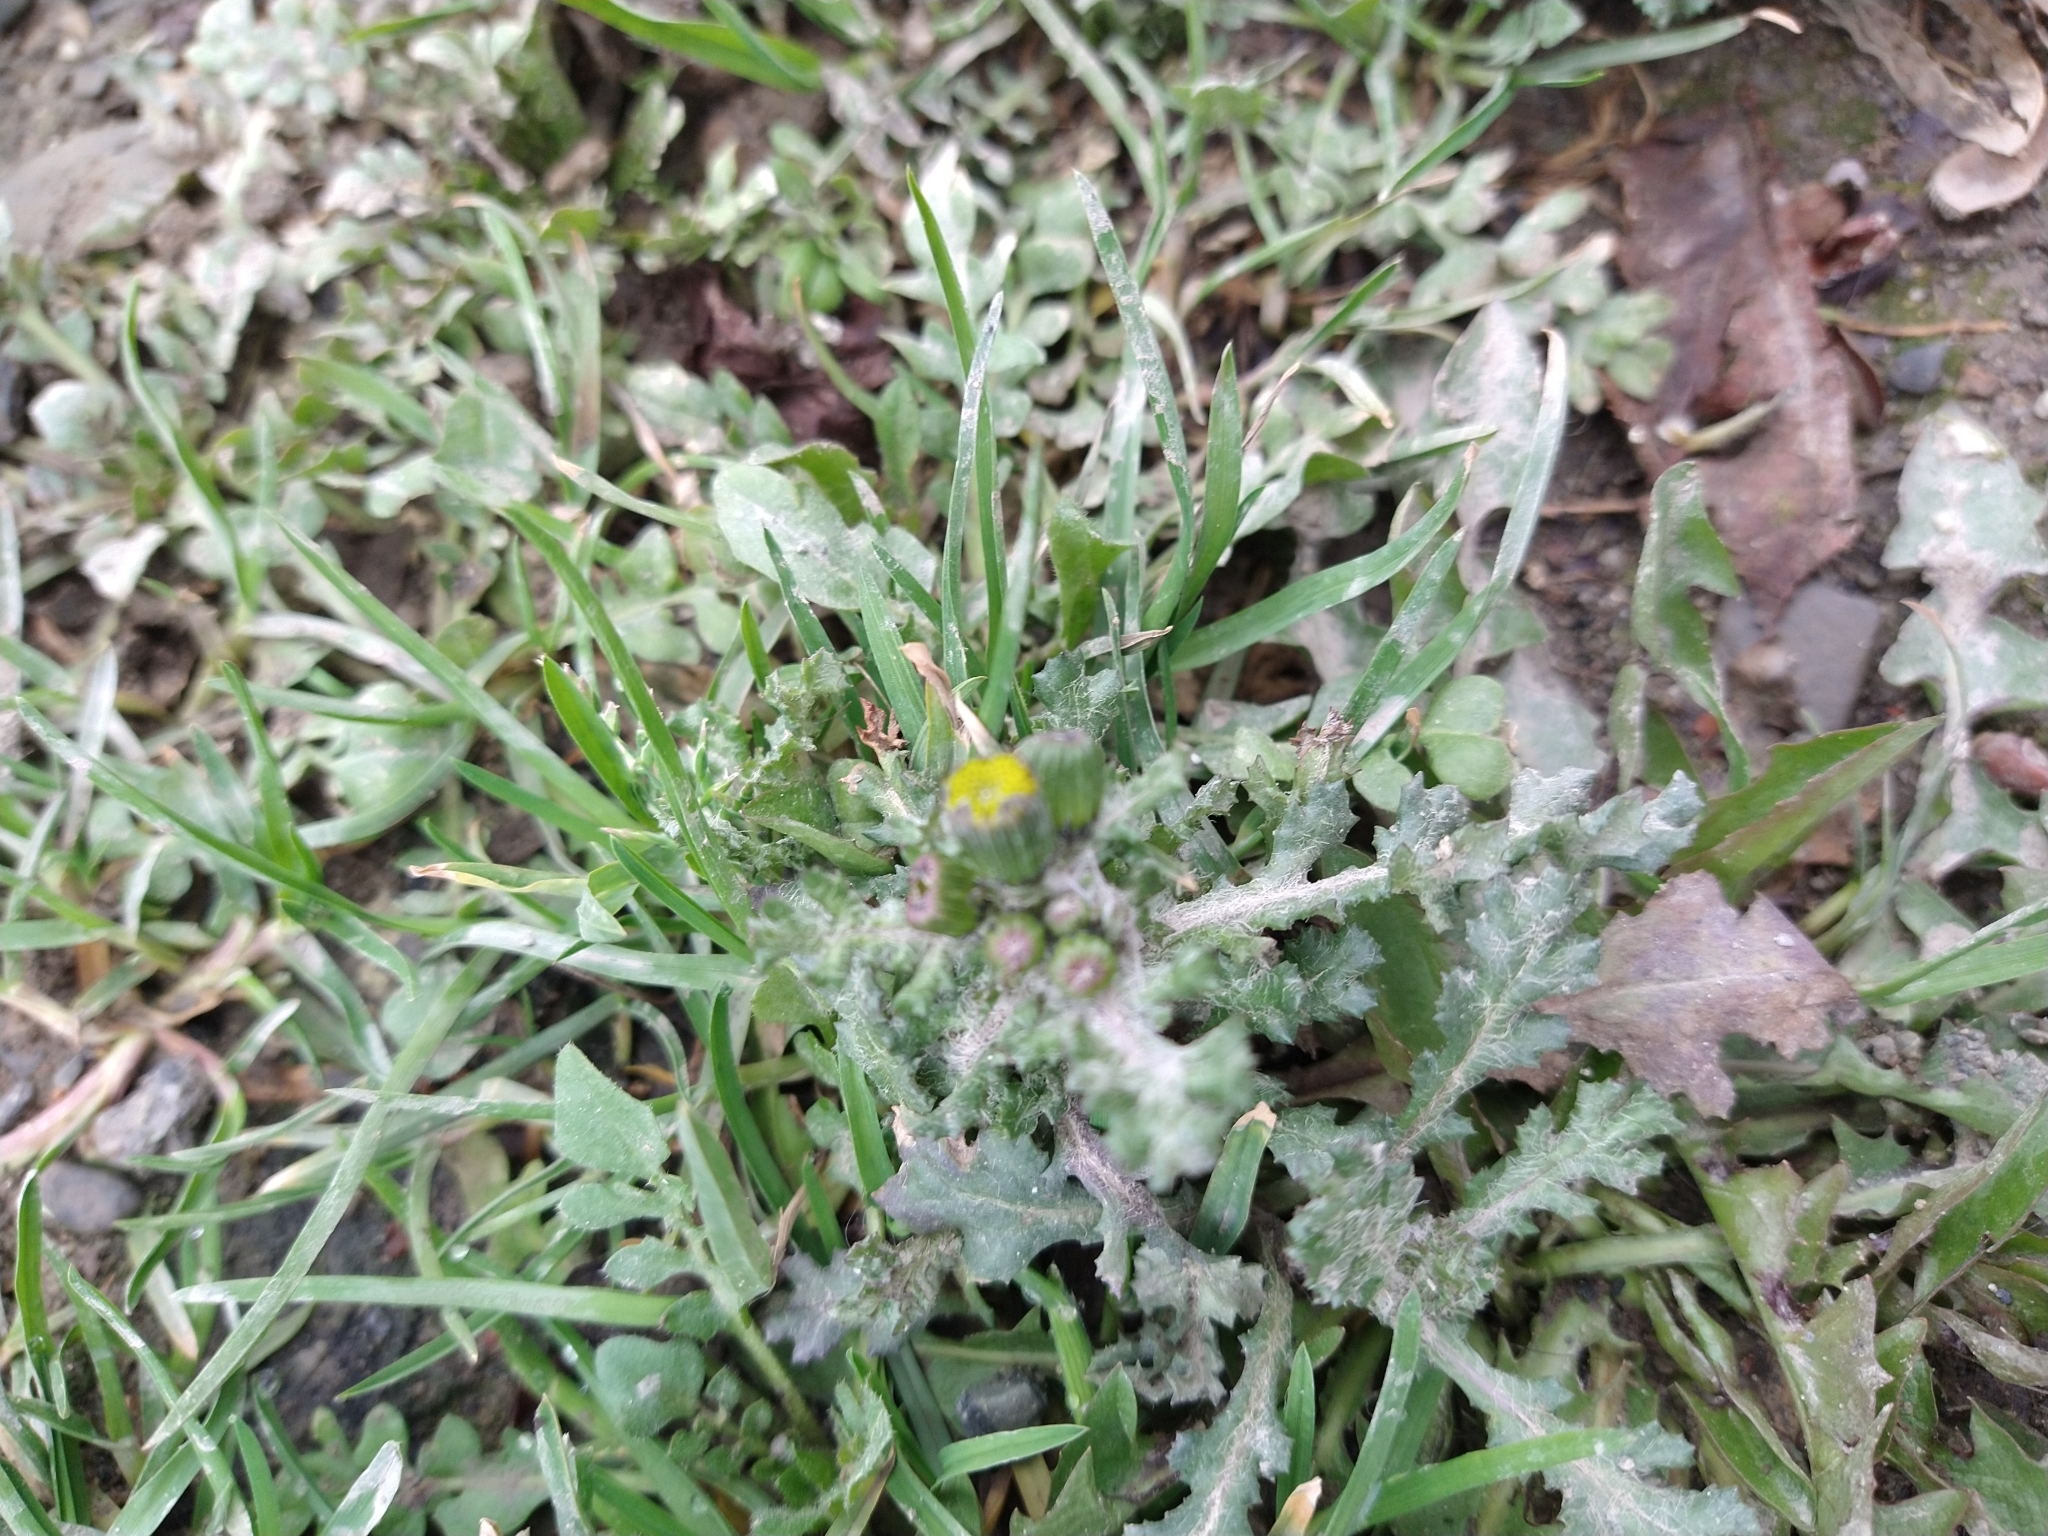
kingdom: Plantae
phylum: Tracheophyta
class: Magnoliopsida
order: Asterales
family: Asteraceae
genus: Senecio
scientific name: Senecio vulgaris
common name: Old-man-in-the-spring
